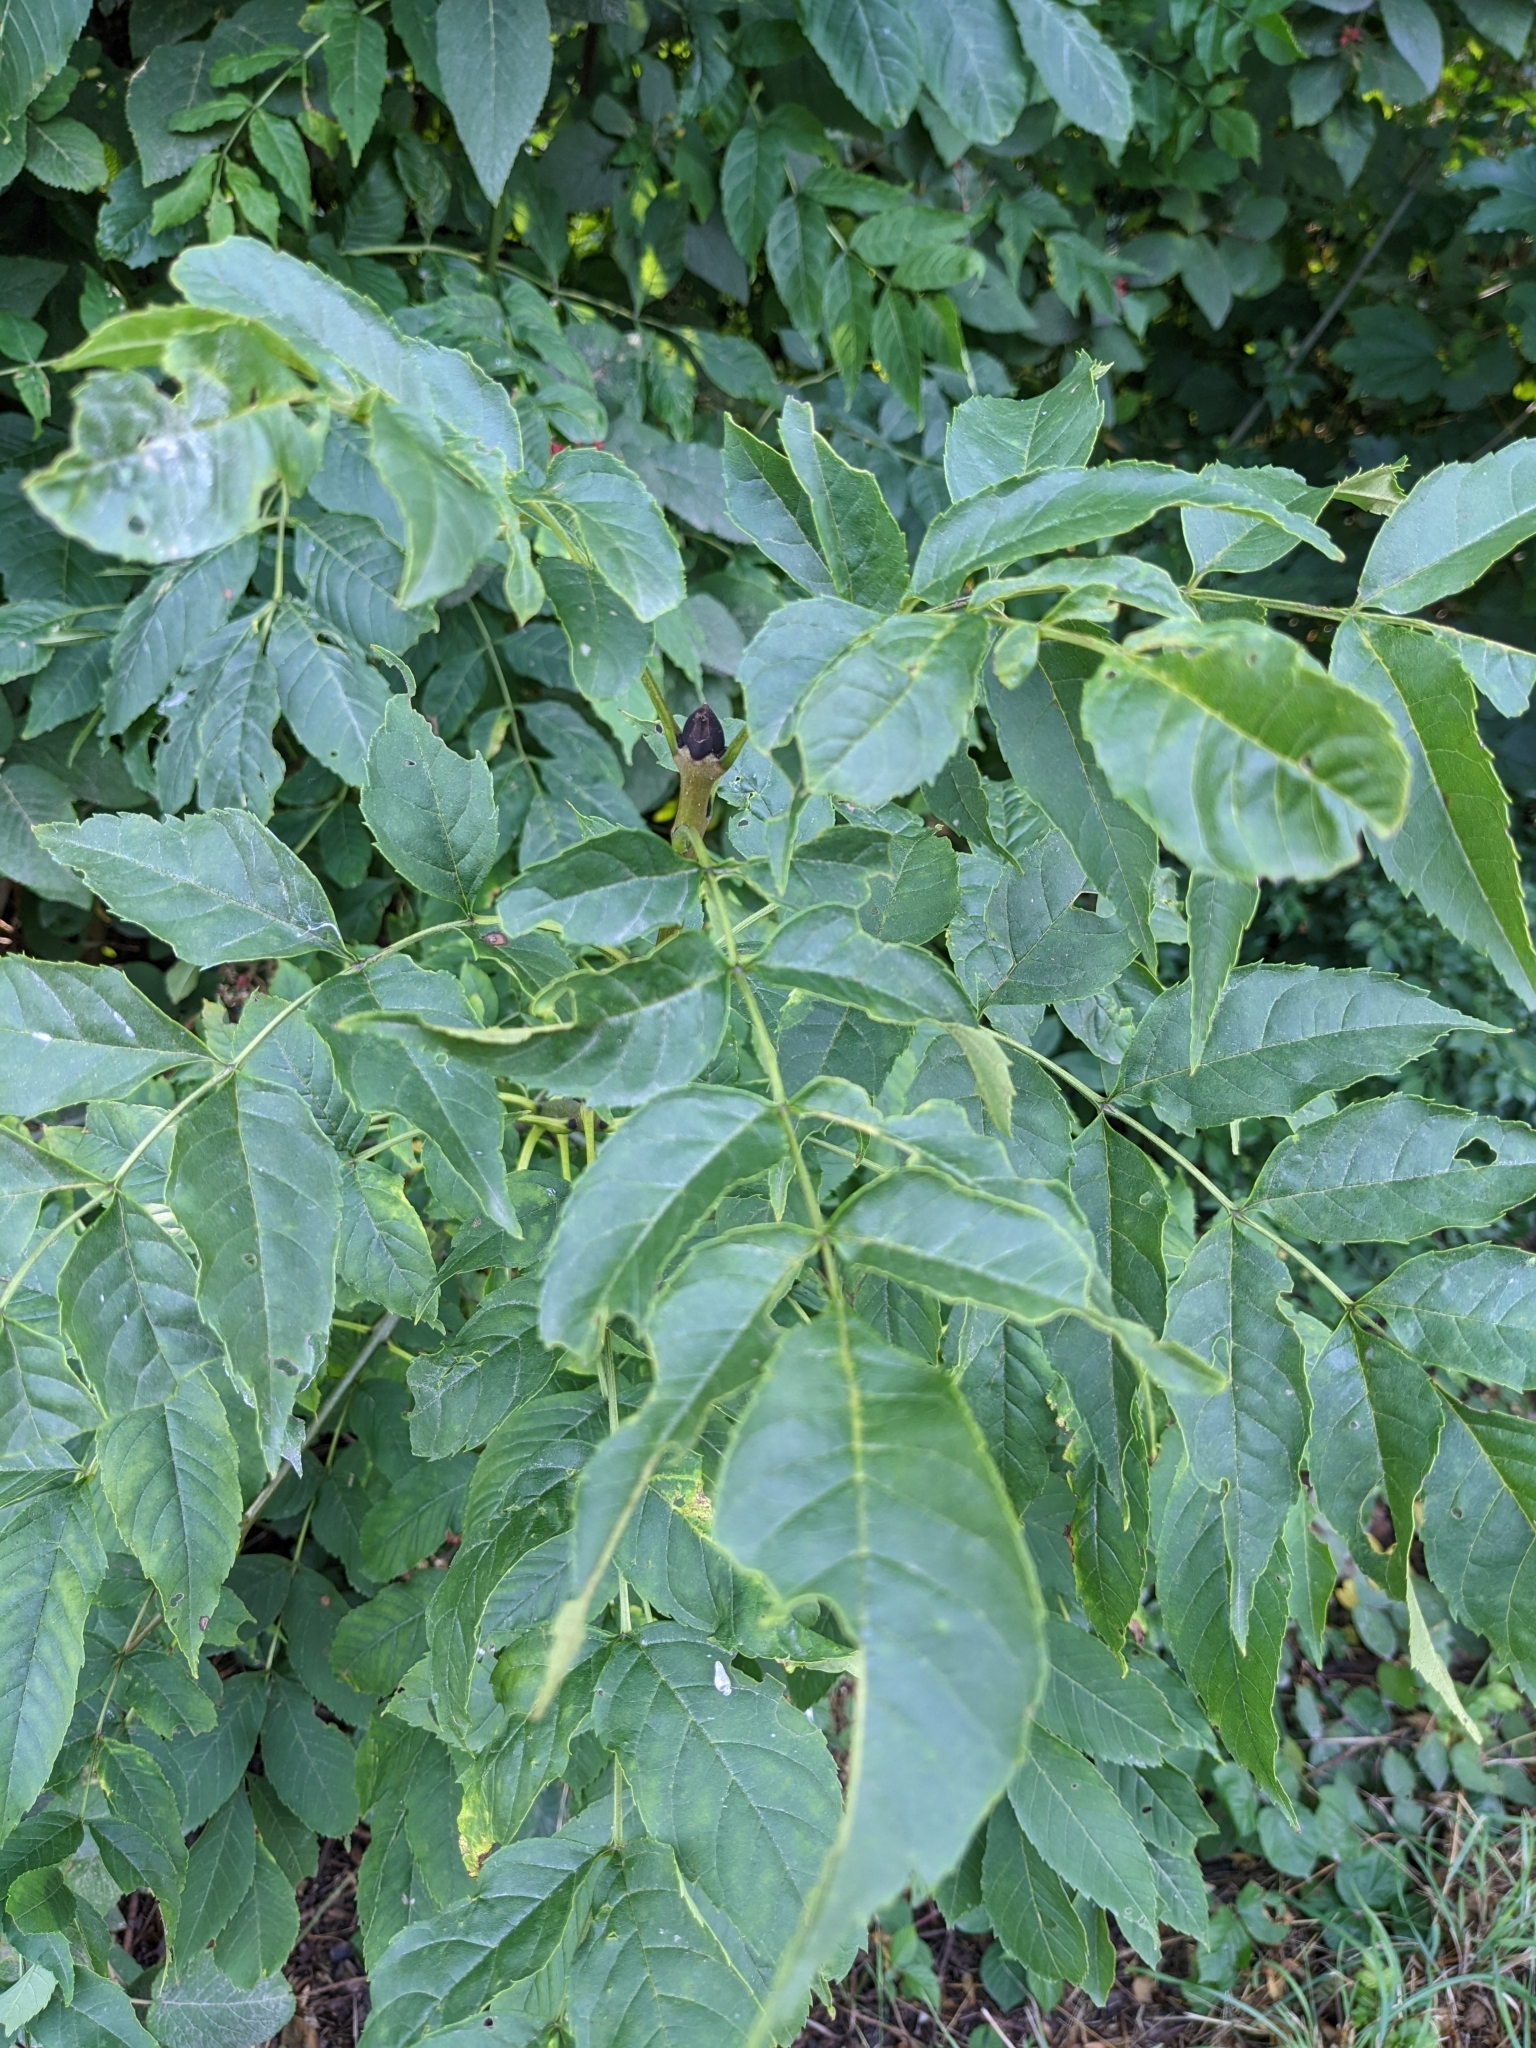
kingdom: Plantae
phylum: Tracheophyta
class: Magnoliopsida
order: Lamiales
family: Oleaceae
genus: Fraxinus
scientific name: Fraxinus excelsior
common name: European ash
